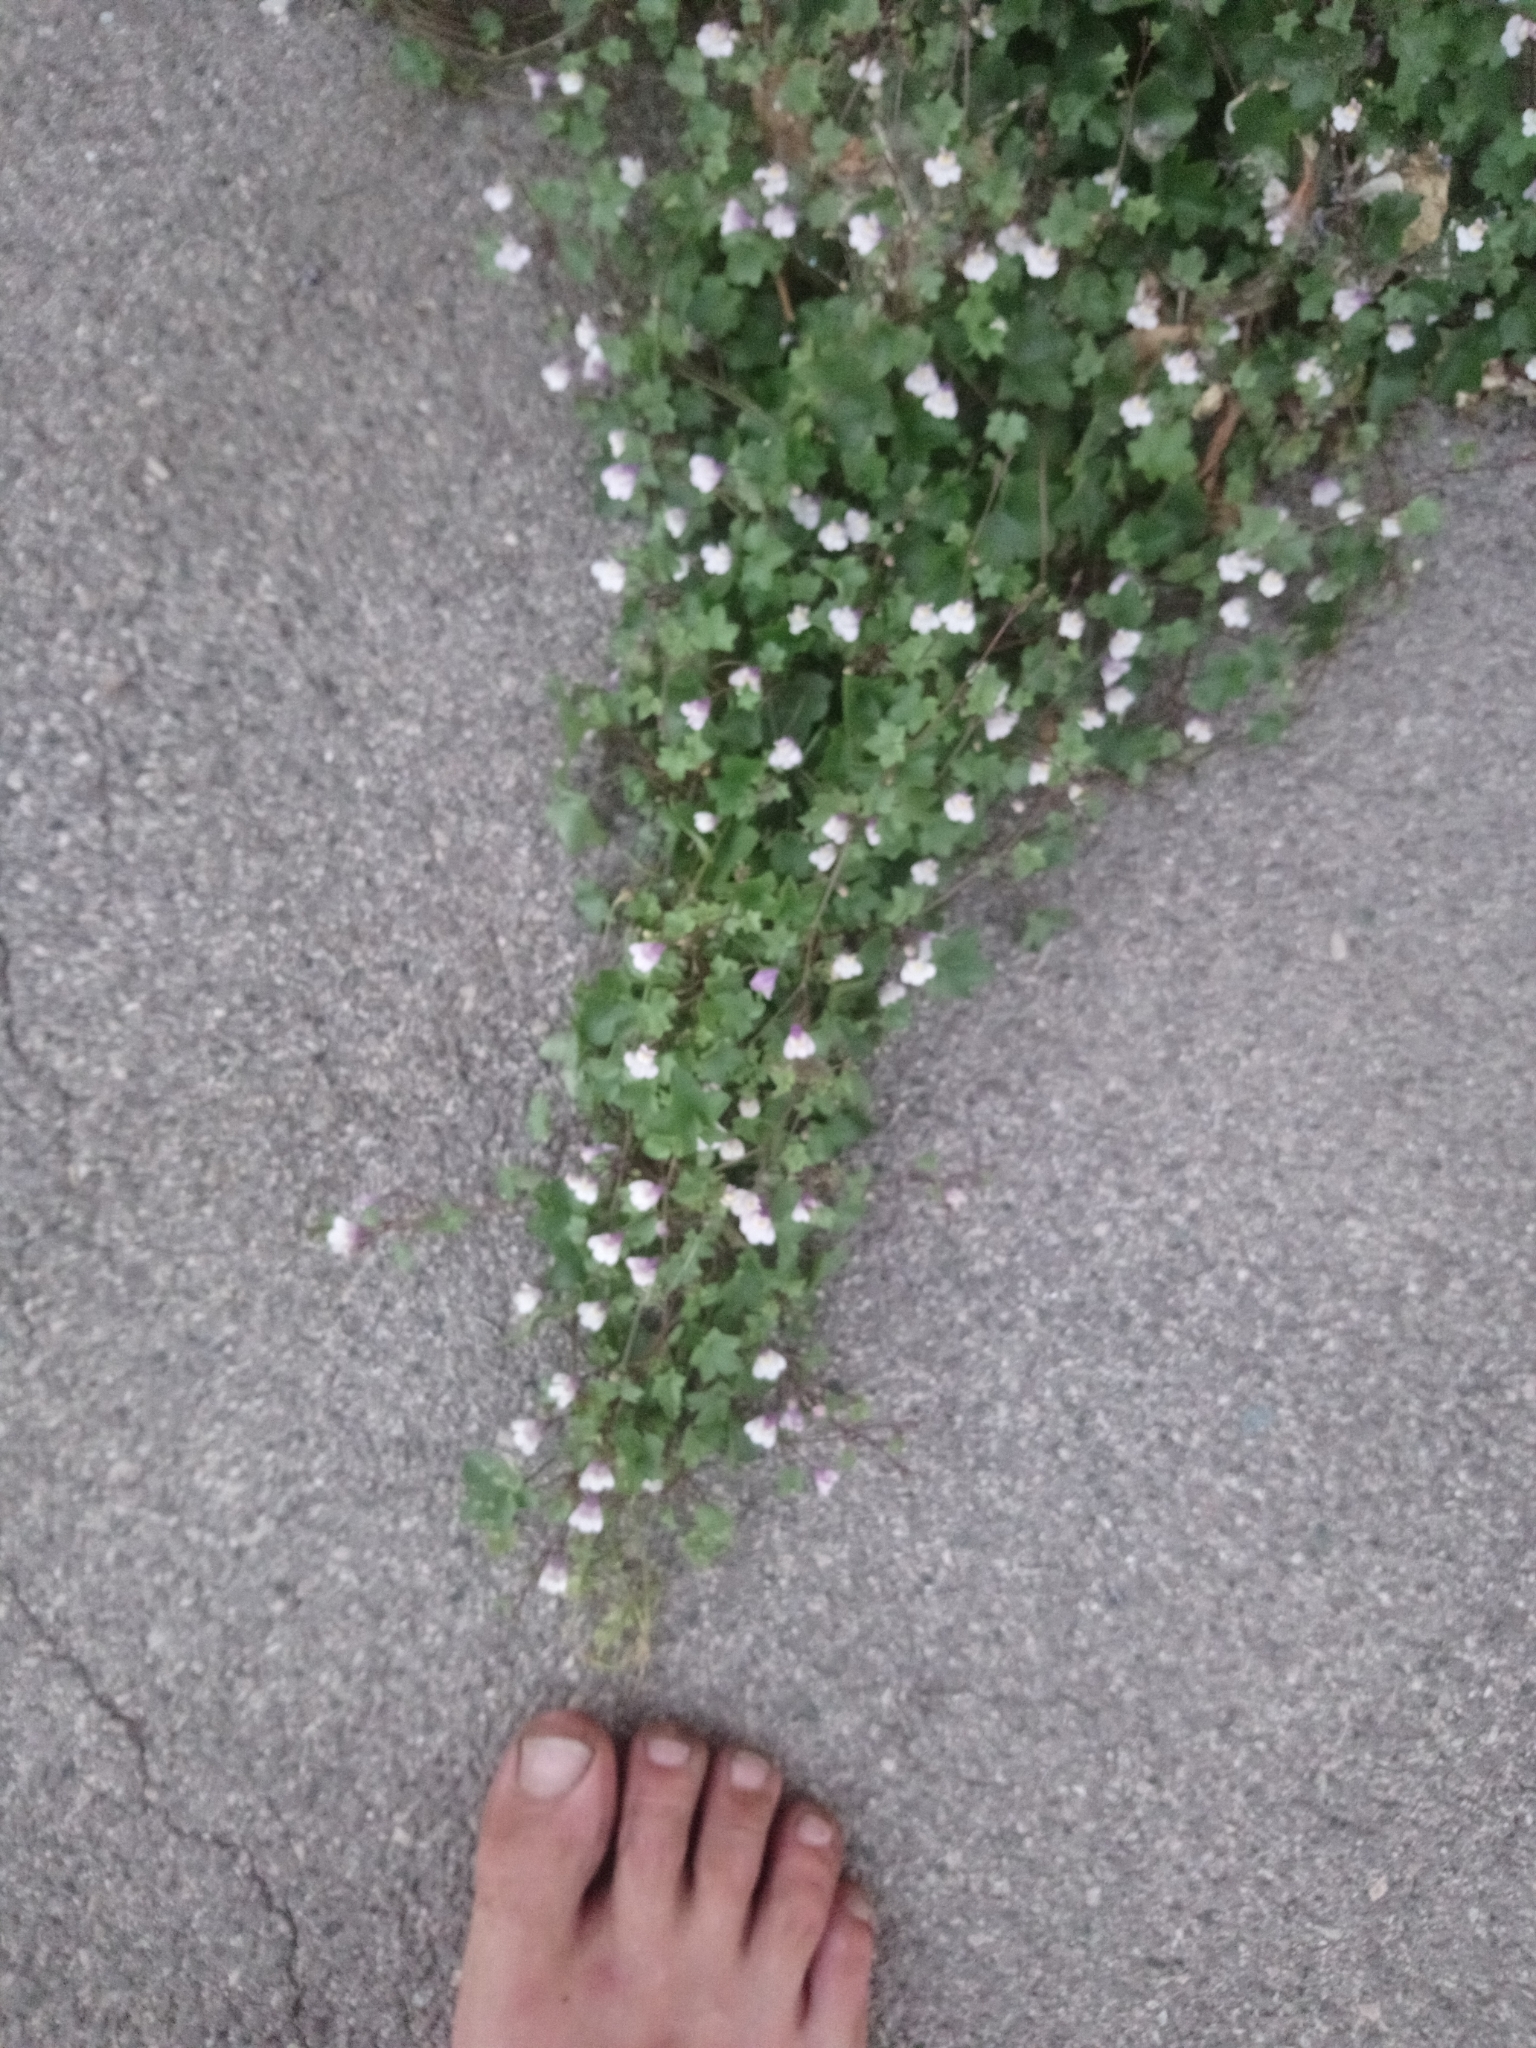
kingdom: Plantae
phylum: Tracheophyta
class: Magnoliopsida
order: Lamiales
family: Plantaginaceae
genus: Cymbalaria
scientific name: Cymbalaria muralis
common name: Ivy-leaved toadflax
